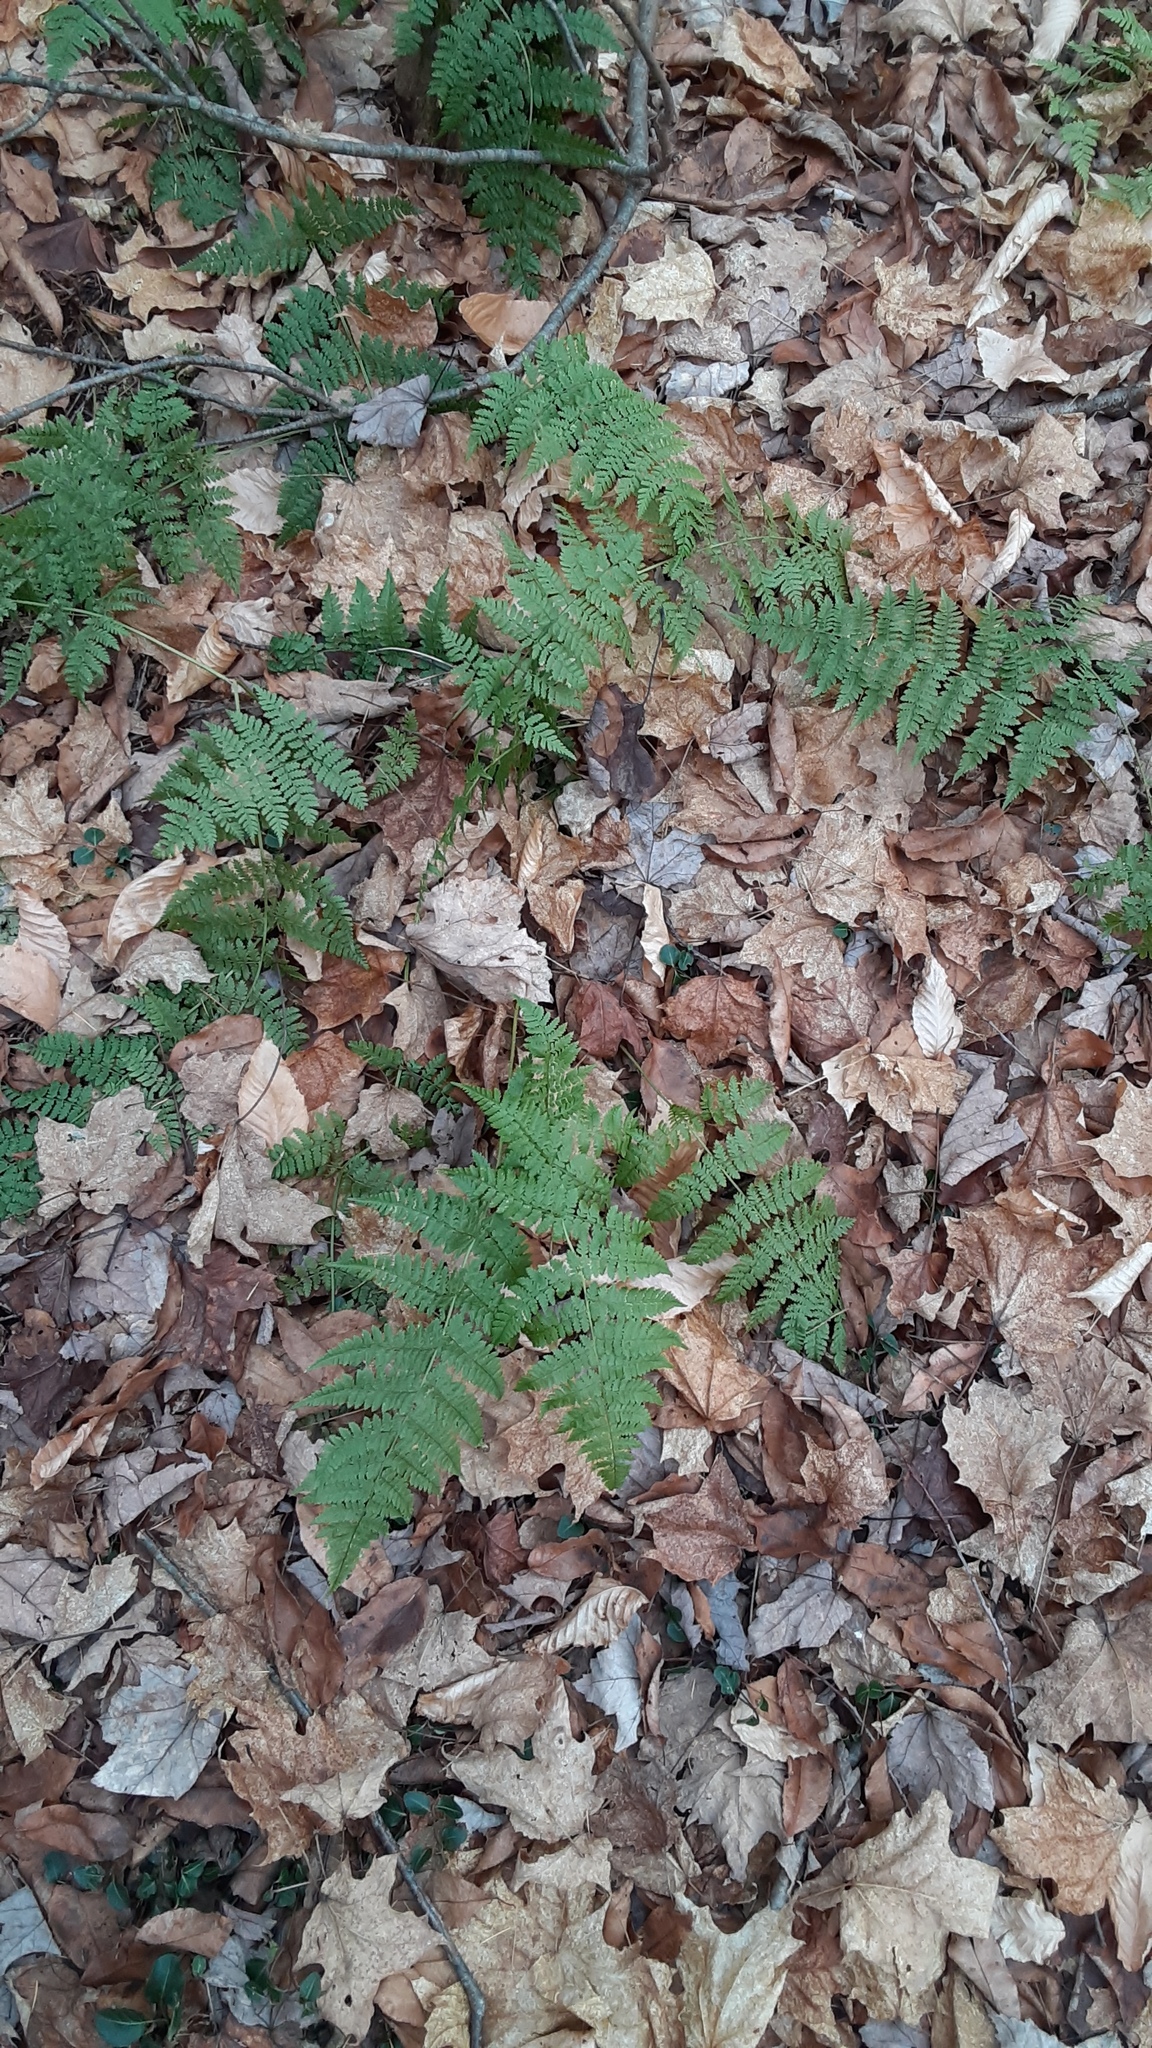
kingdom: Plantae
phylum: Tracheophyta
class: Polypodiopsida
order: Polypodiales
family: Dryopteridaceae
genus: Dryopteris
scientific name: Dryopteris intermedia
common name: Evergreen wood fern
